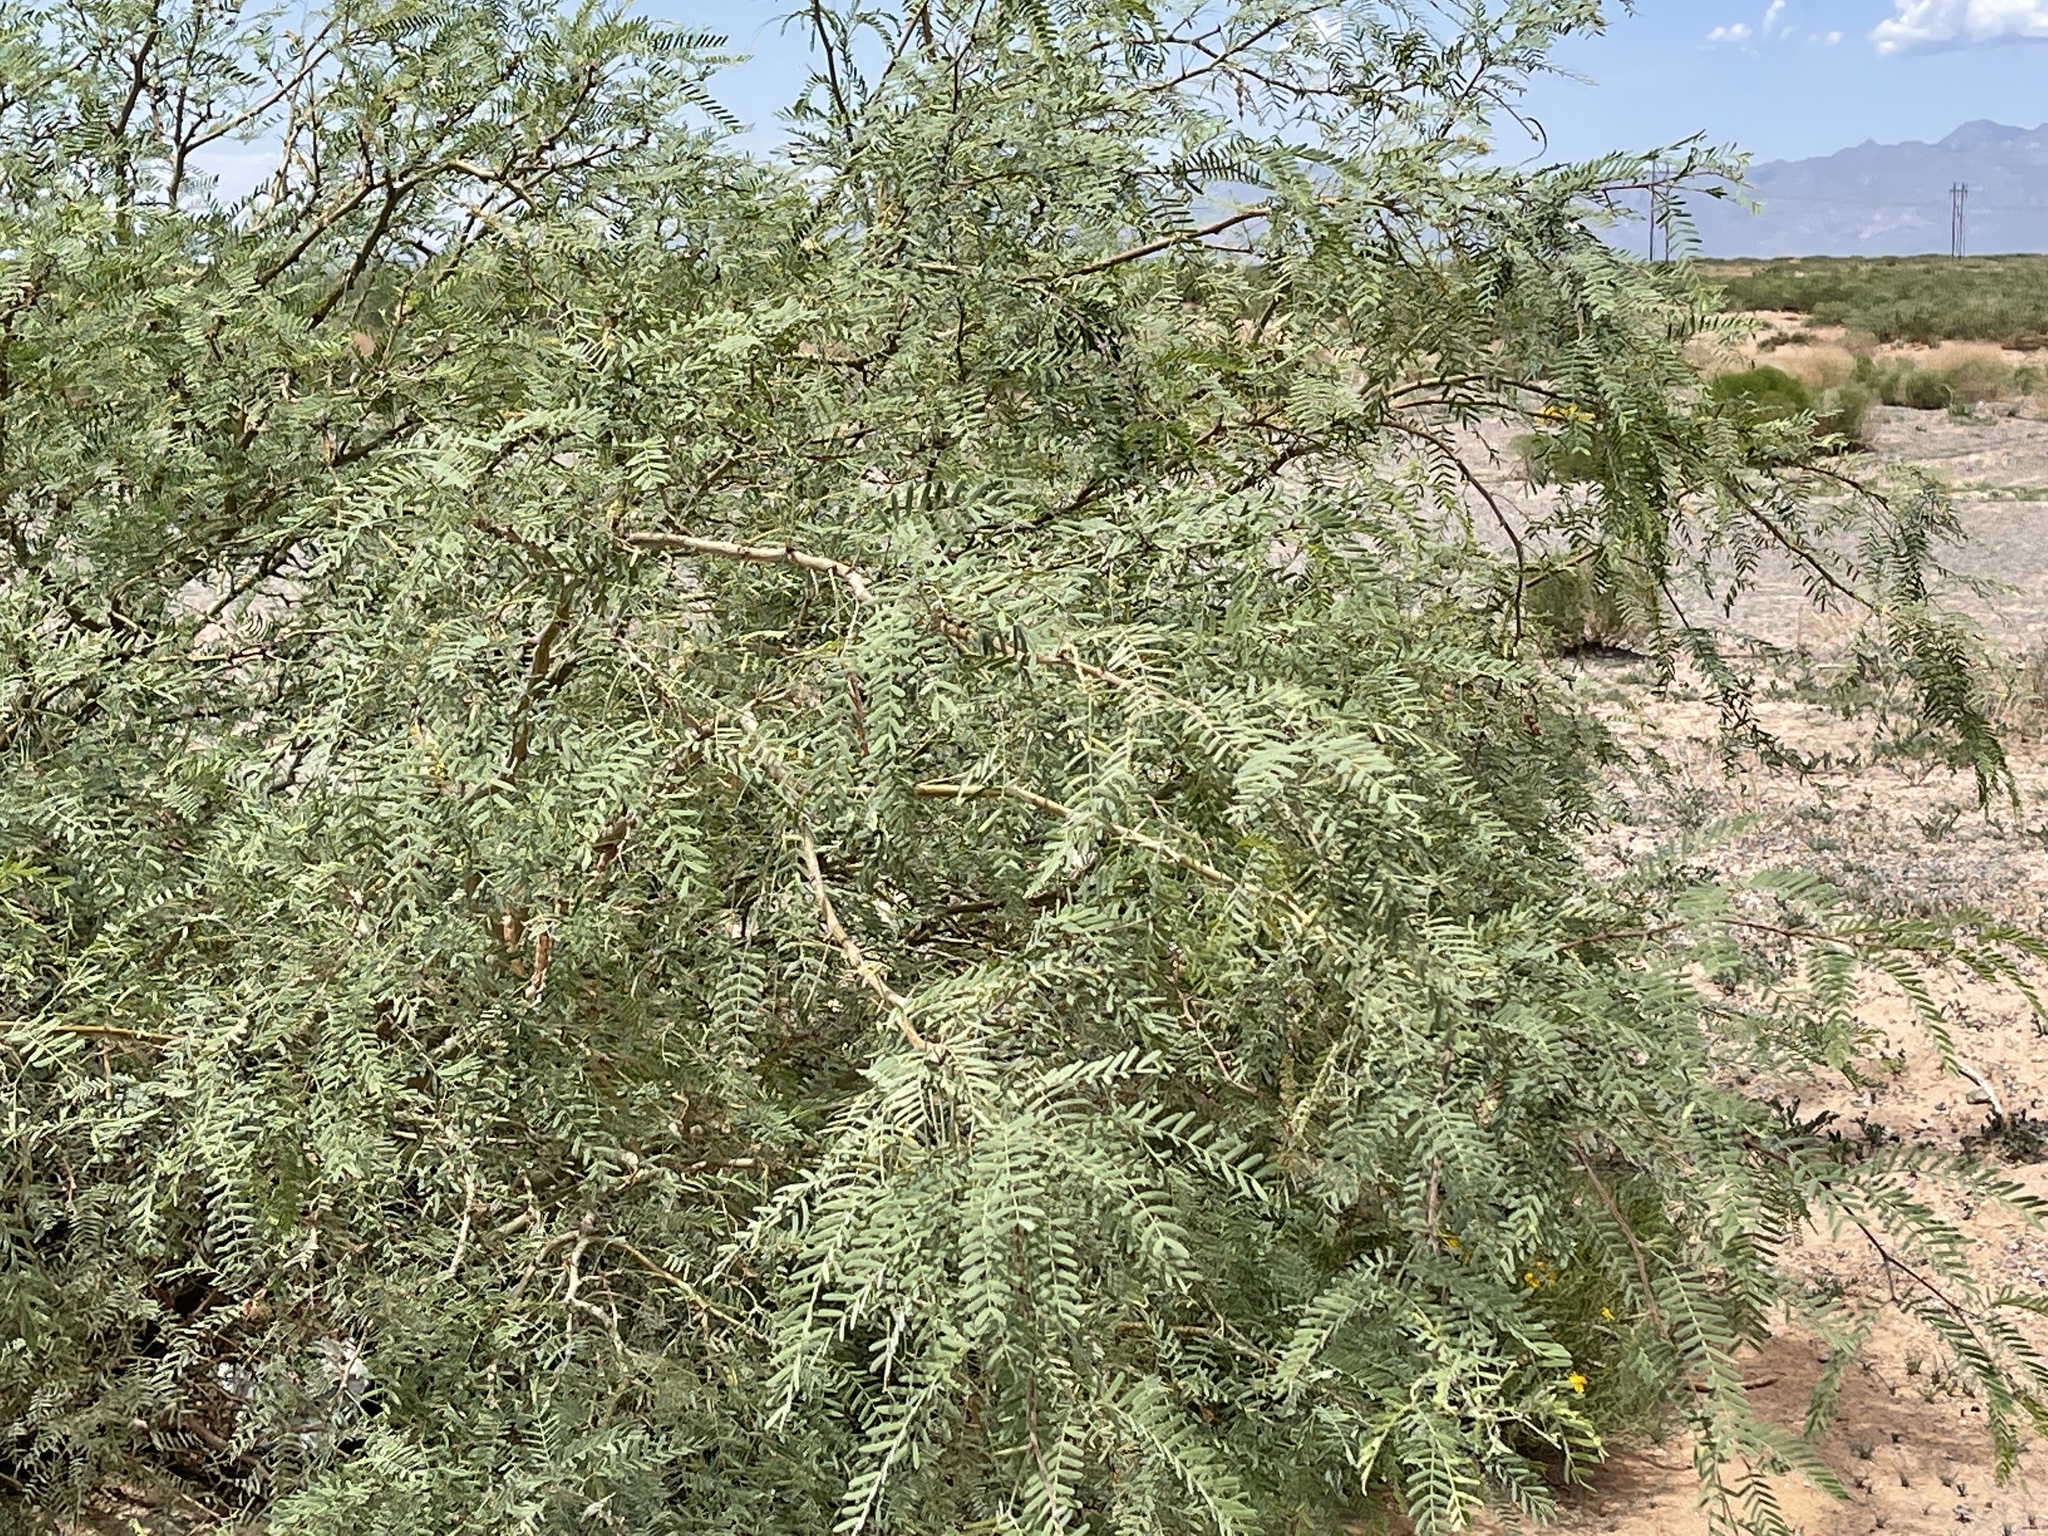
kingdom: Plantae
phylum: Tracheophyta
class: Magnoliopsida
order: Fabales
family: Fabaceae
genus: Prosopis
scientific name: Prosopis glandulosa
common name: Honey mesquite
